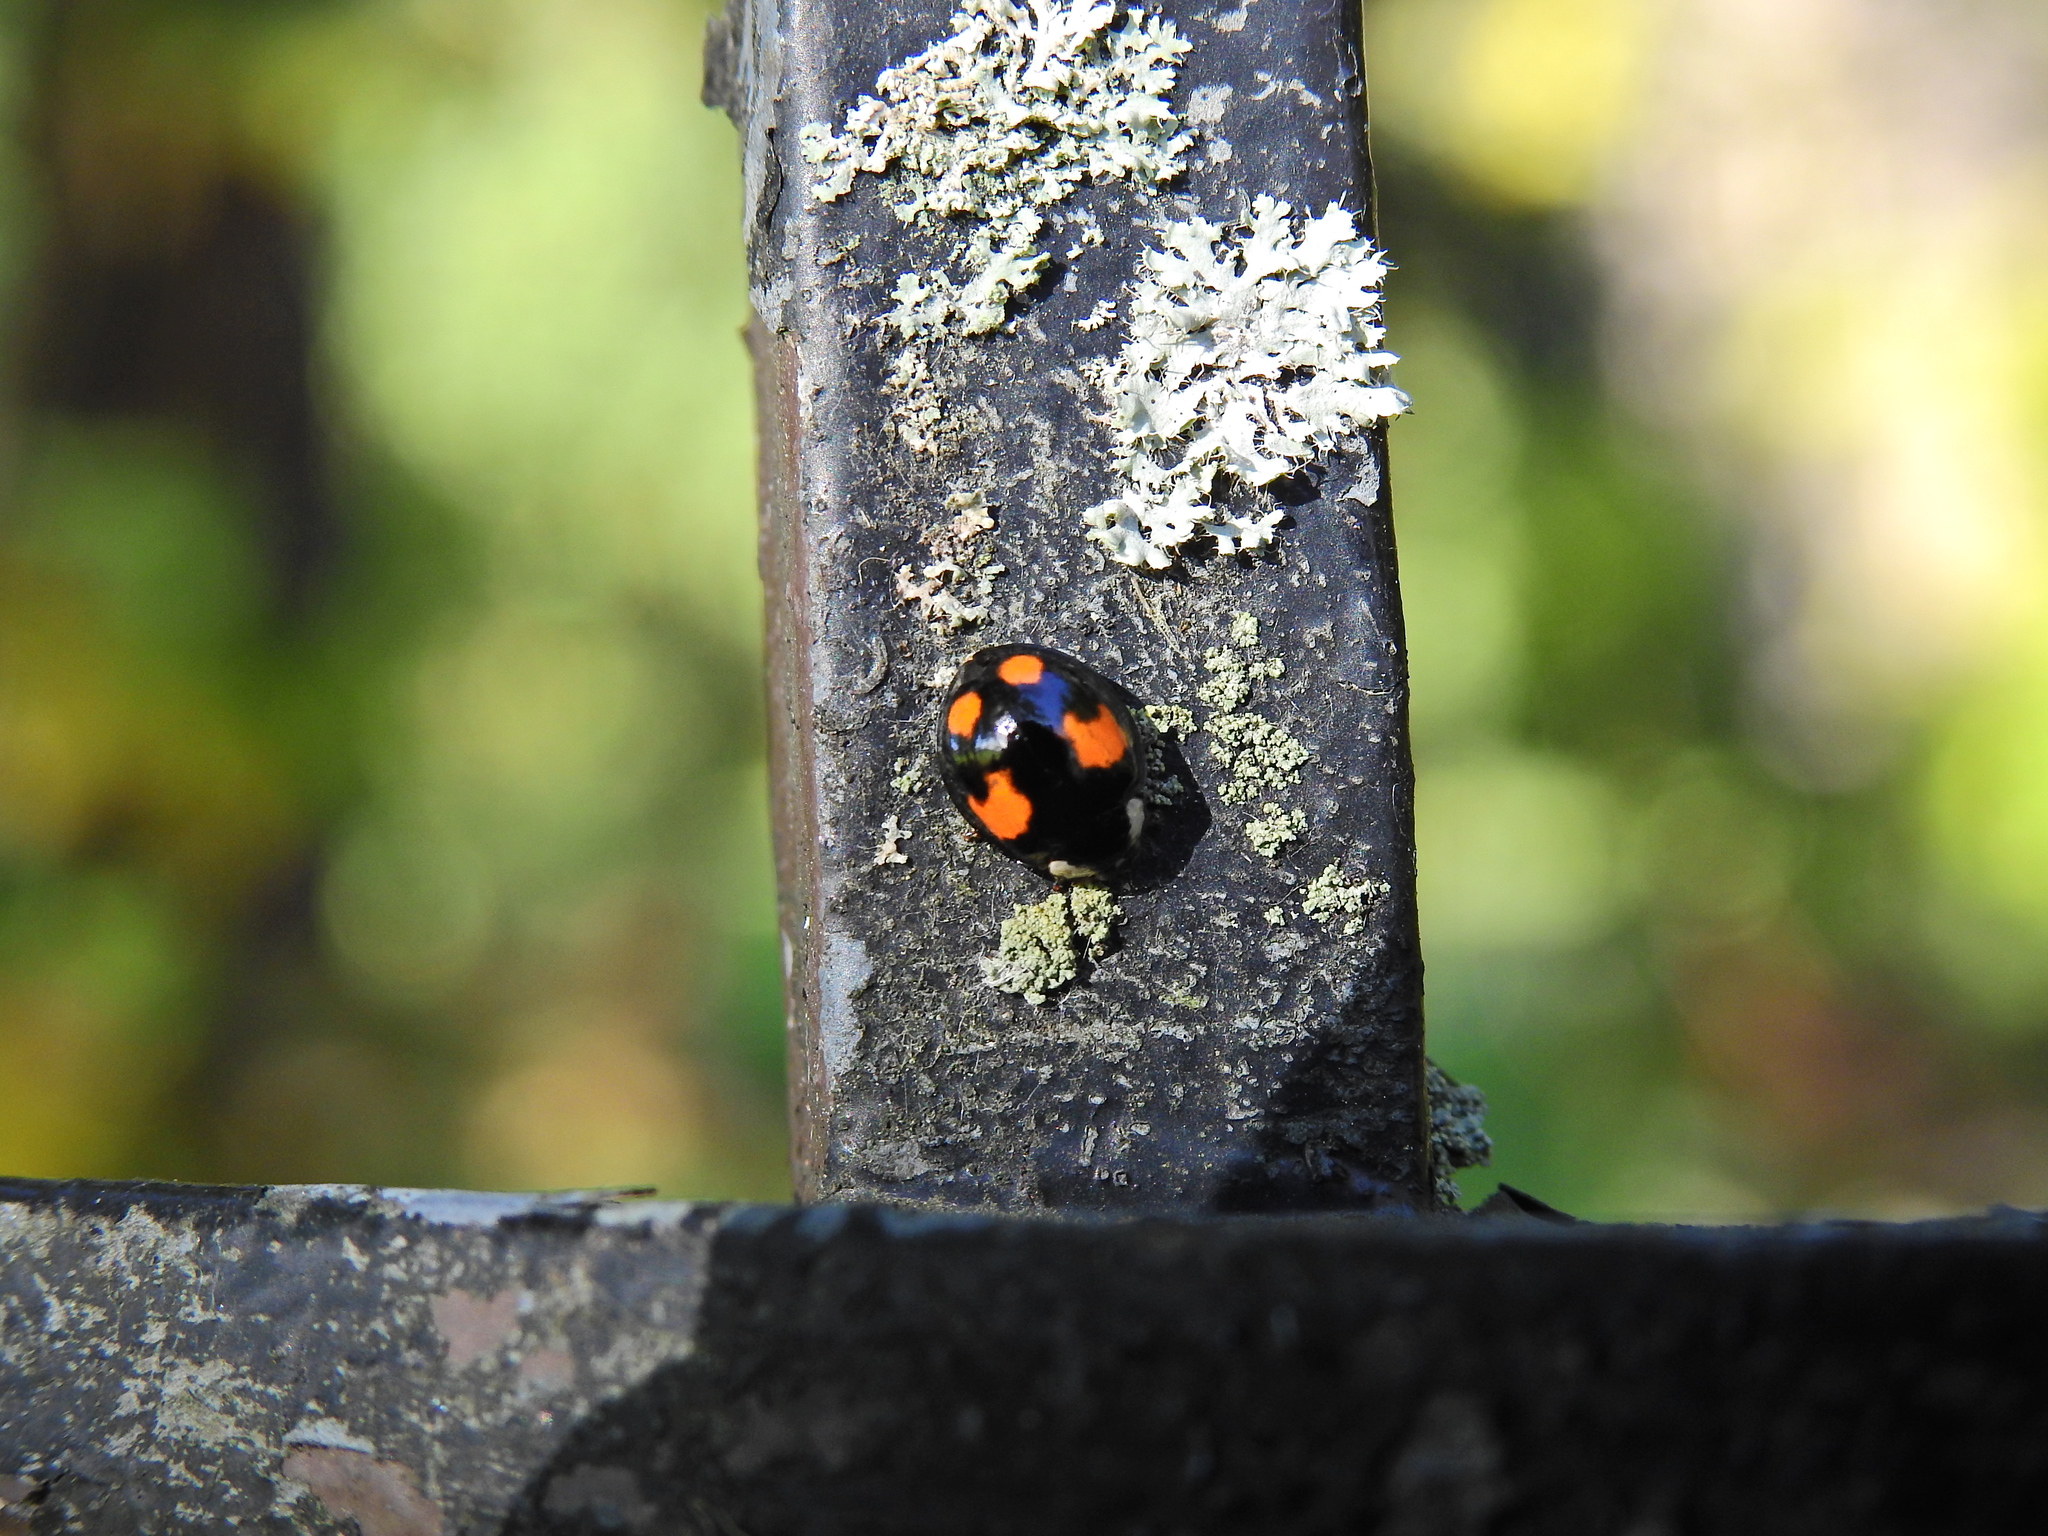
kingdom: Animalia
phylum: Arthropoda
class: Insecta
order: Coleoptera
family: Coccinellidae
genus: Harmonia
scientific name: Harmonia axyridis
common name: Harlequin ladybird
